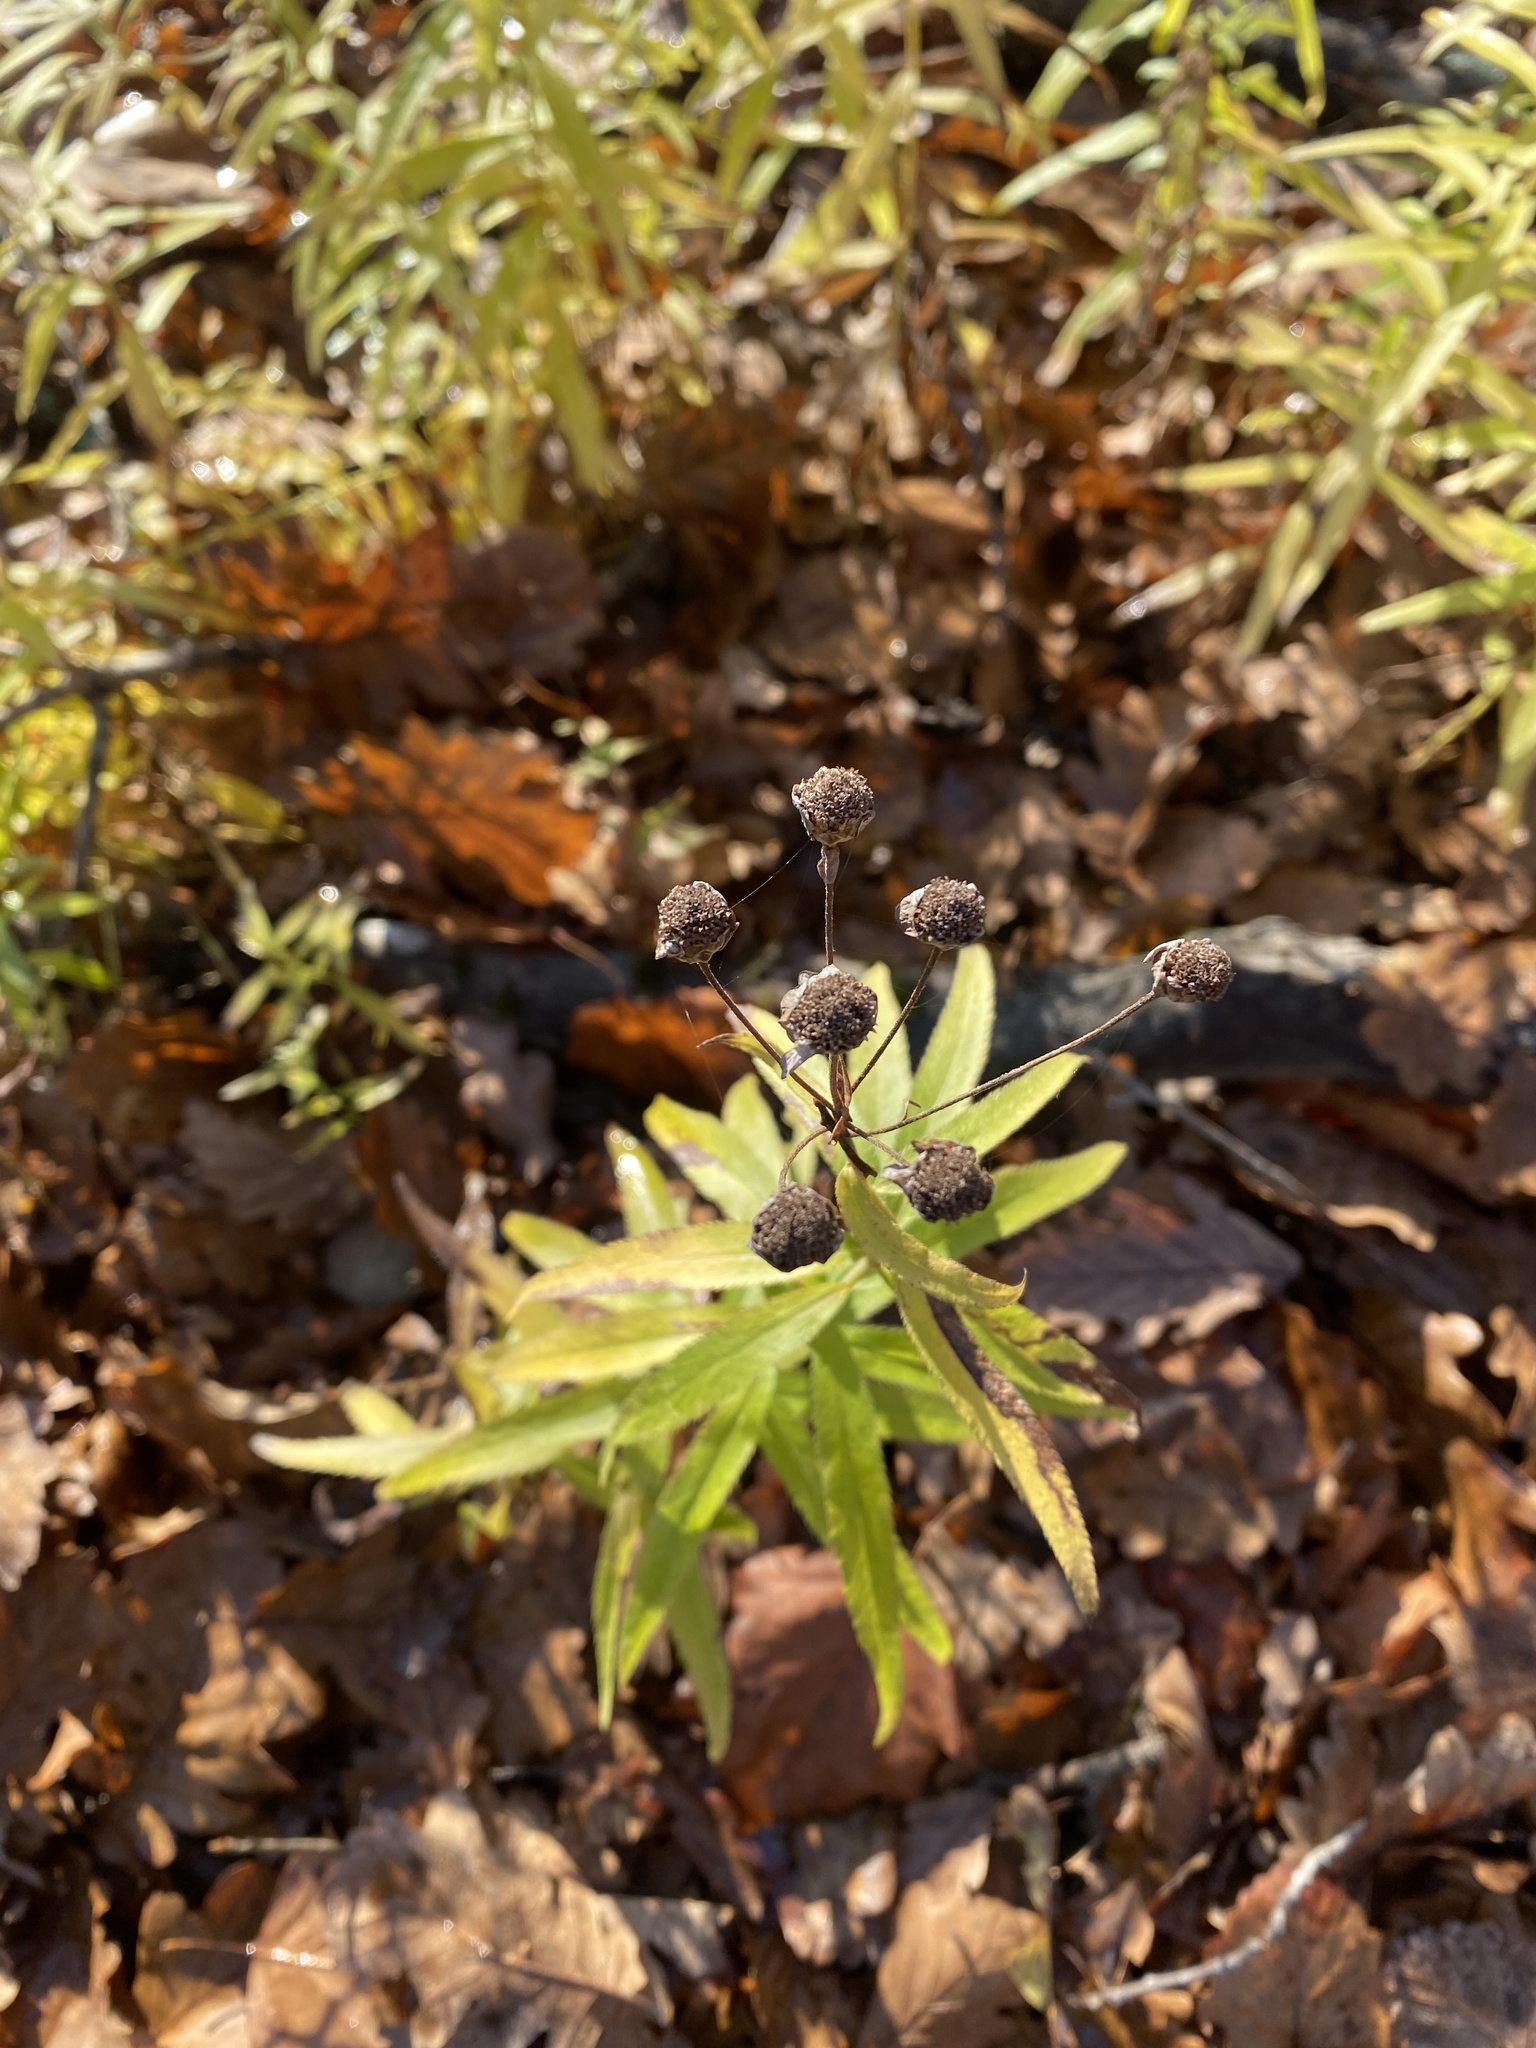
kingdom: Plantae
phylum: Tracheophyta
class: Magnoliopsida
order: Asterales
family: Asteraceae
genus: Achillea
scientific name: Achillea biserrata
